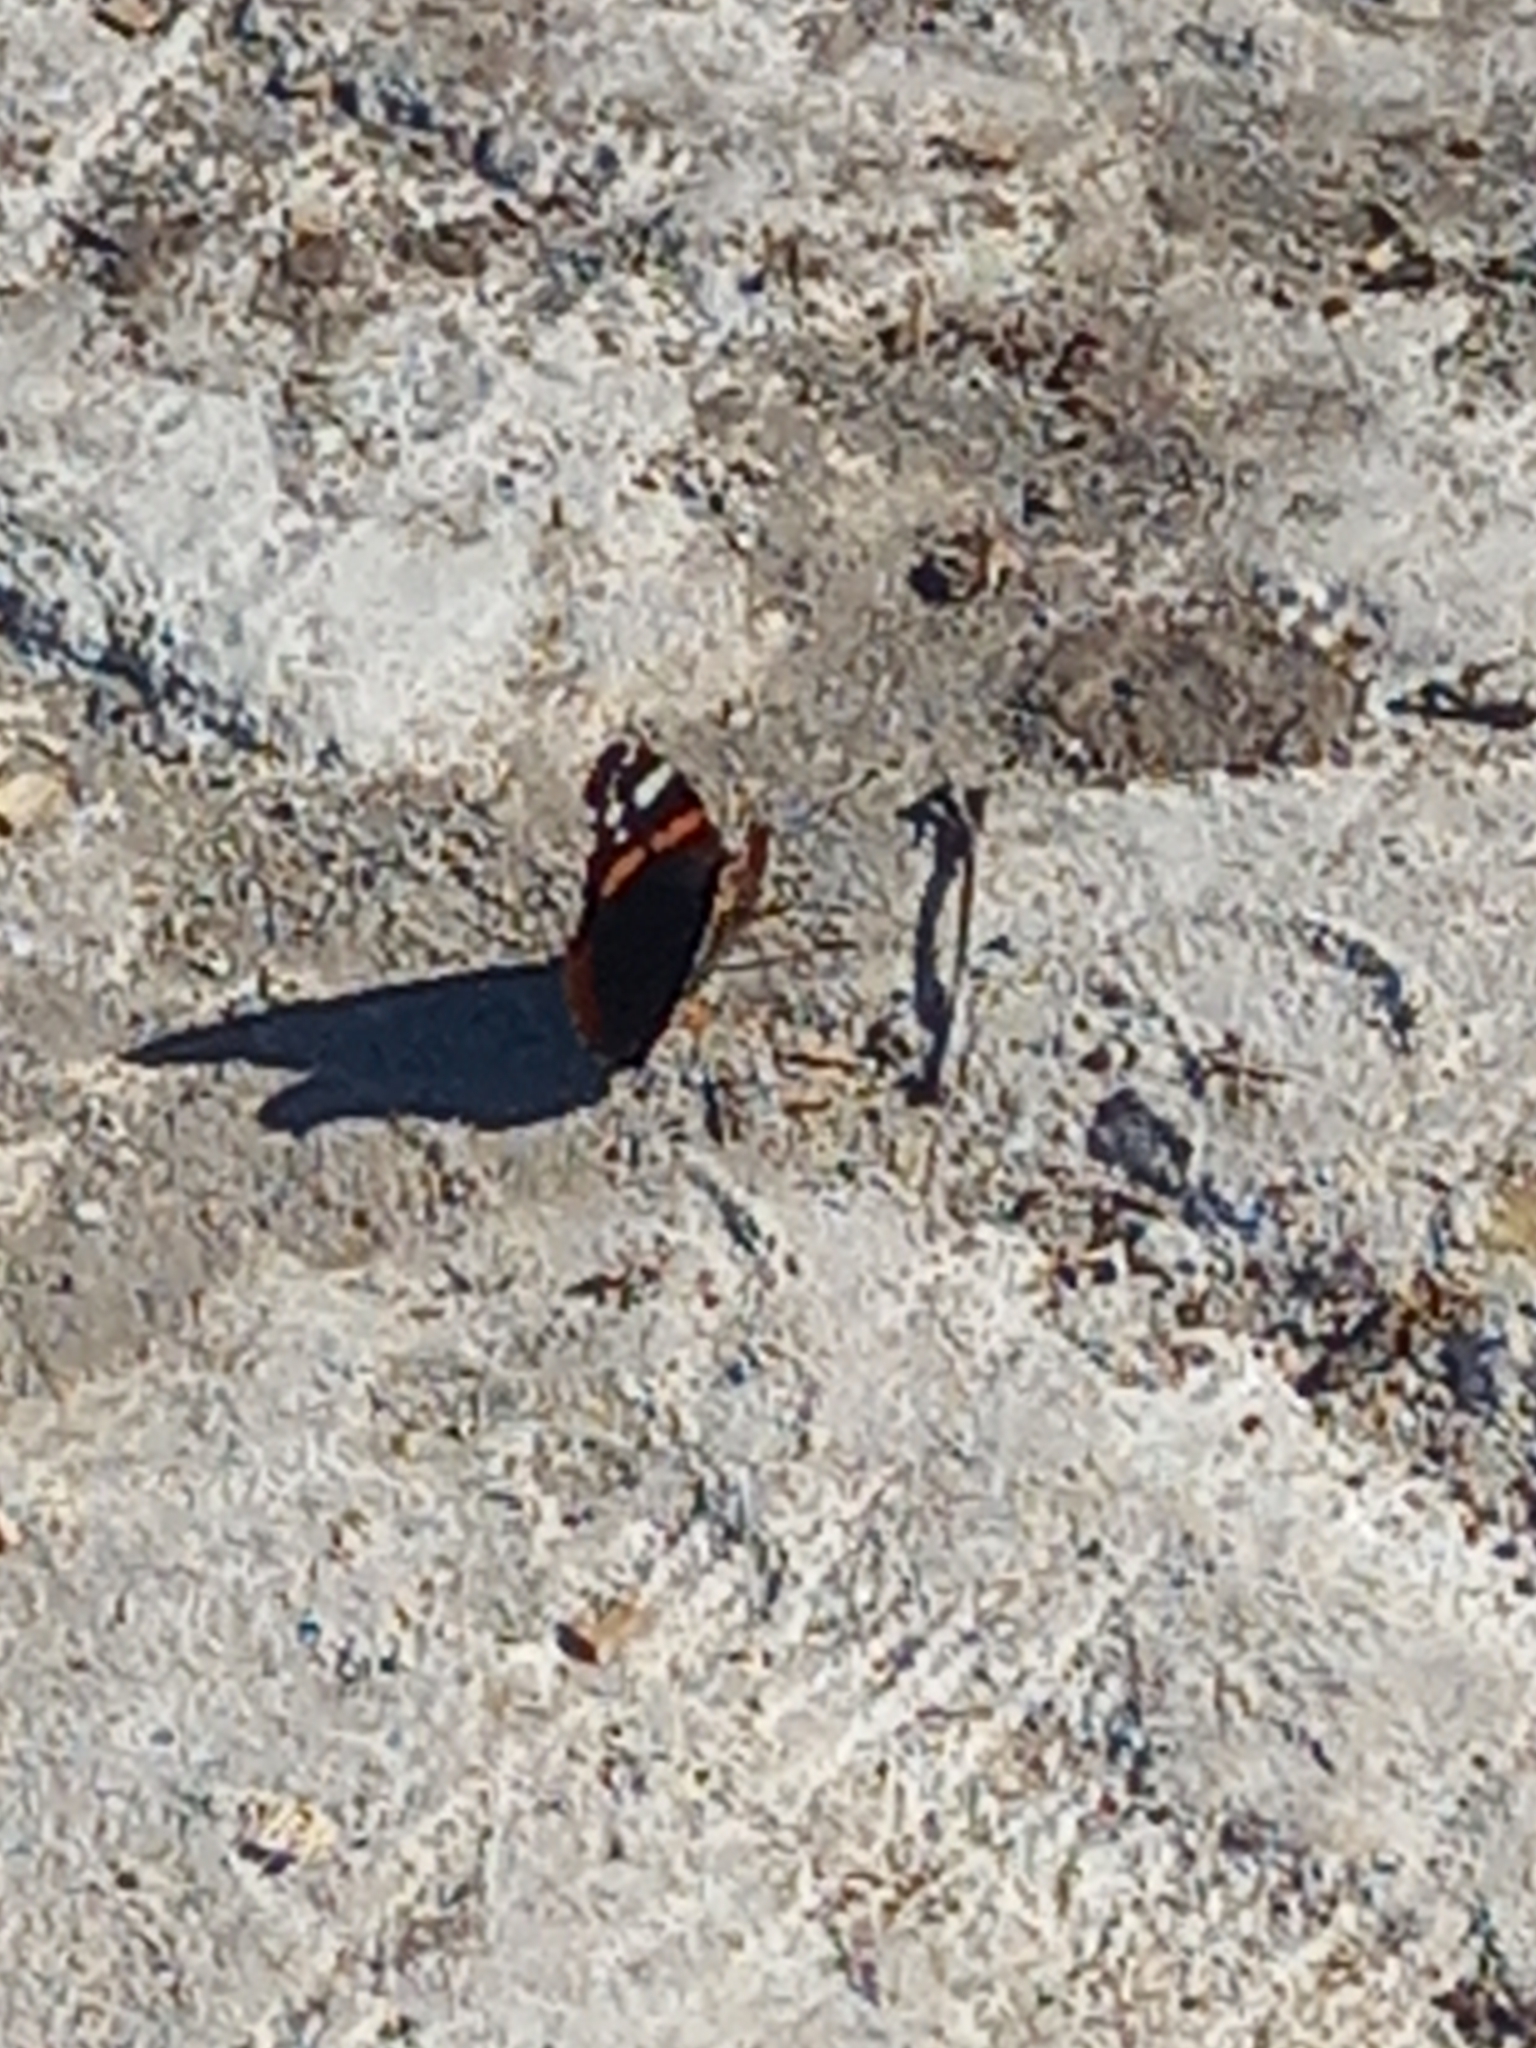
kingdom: Animalia
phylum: Arthropoda
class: Insecta
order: Lepidoptera
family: Nymphalidae
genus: Vanessa
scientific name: Vanessa atalanta
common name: Red admiral
